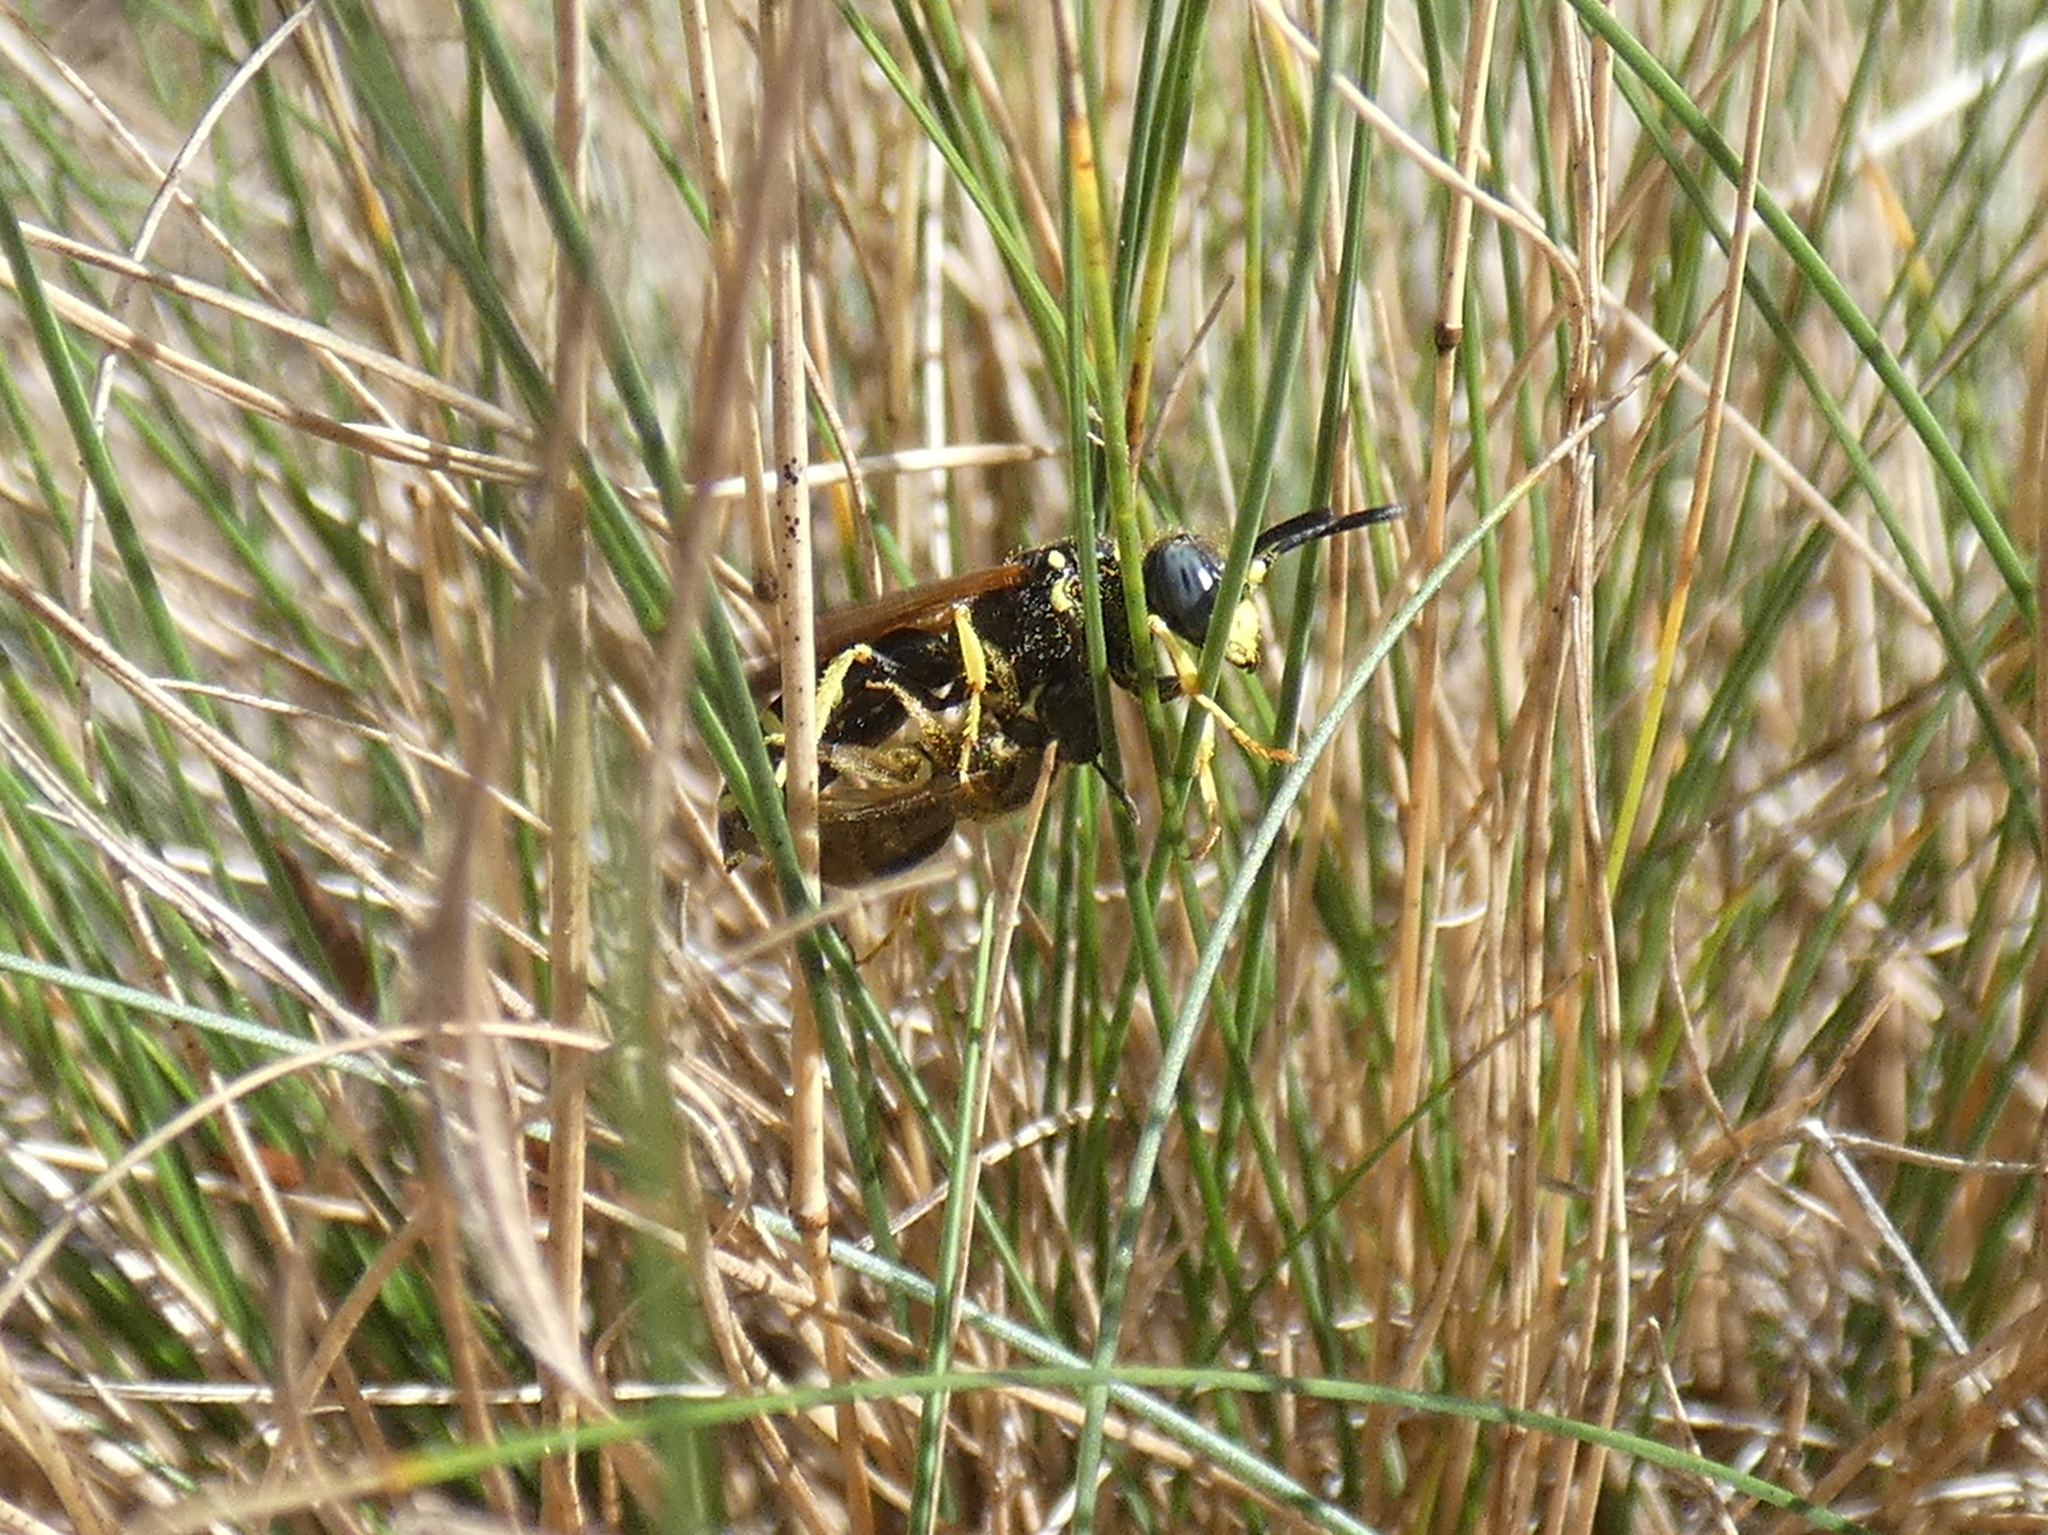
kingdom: Animalia
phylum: Arthropoda
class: Insecta
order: Hymenoptera
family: Crabronidae
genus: Philanthus
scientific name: Philanthus
